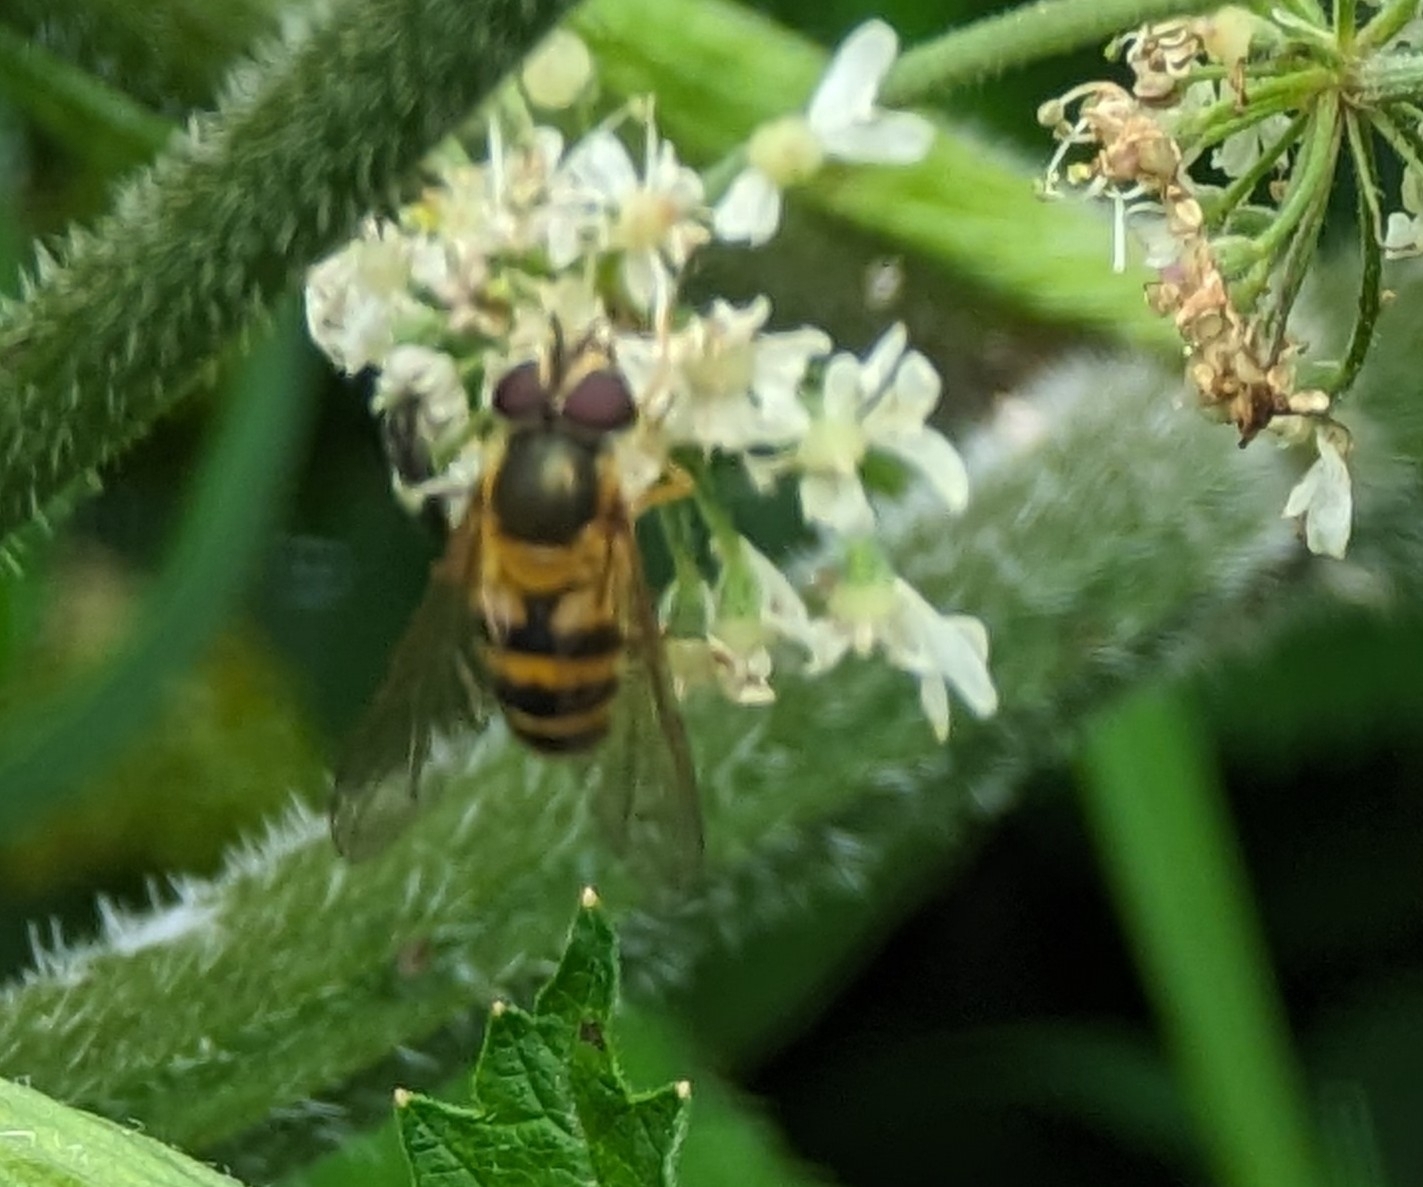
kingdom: Animalia
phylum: Arthropoda
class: Insecta
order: Diptera
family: Syrphidae
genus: Epistrophe
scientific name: Epistrophe grossulariae
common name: Black-horned smoothtail
